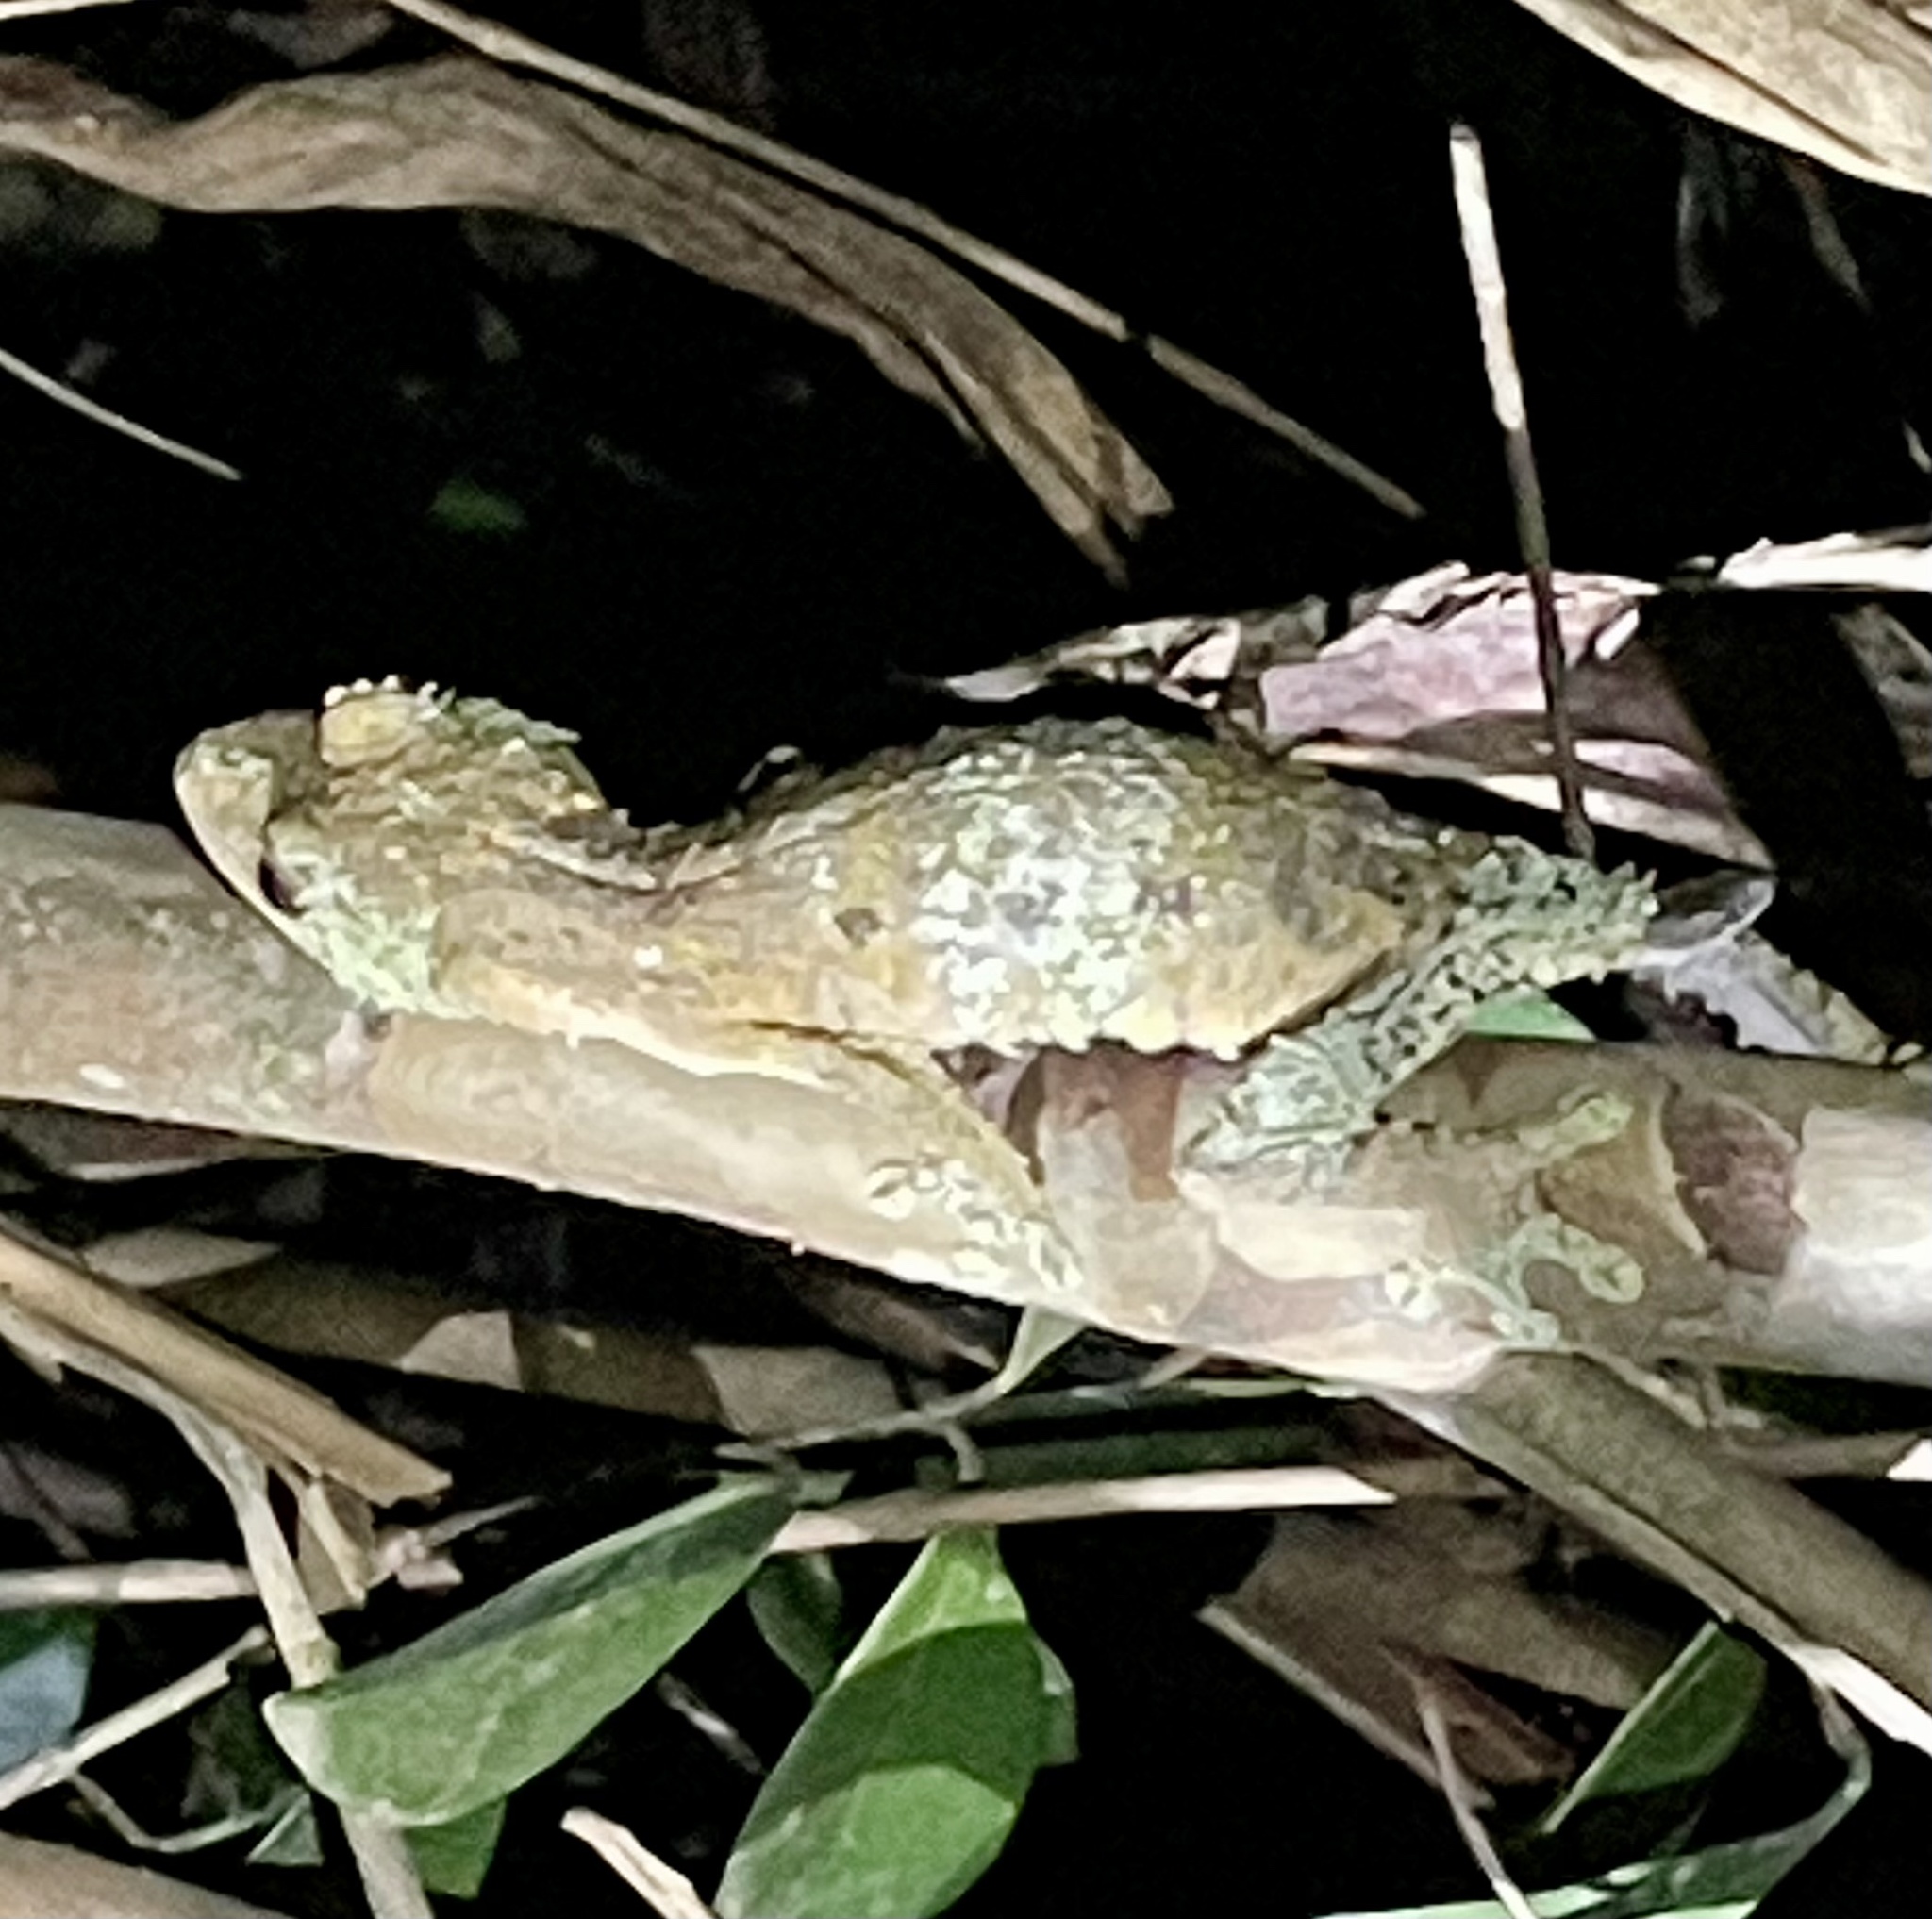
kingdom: Animalia
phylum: Chordata
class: Squamata
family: Gekkonidae
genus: Uroplatus
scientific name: Uroplatus sikorae
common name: Southern flat-tail gecko
